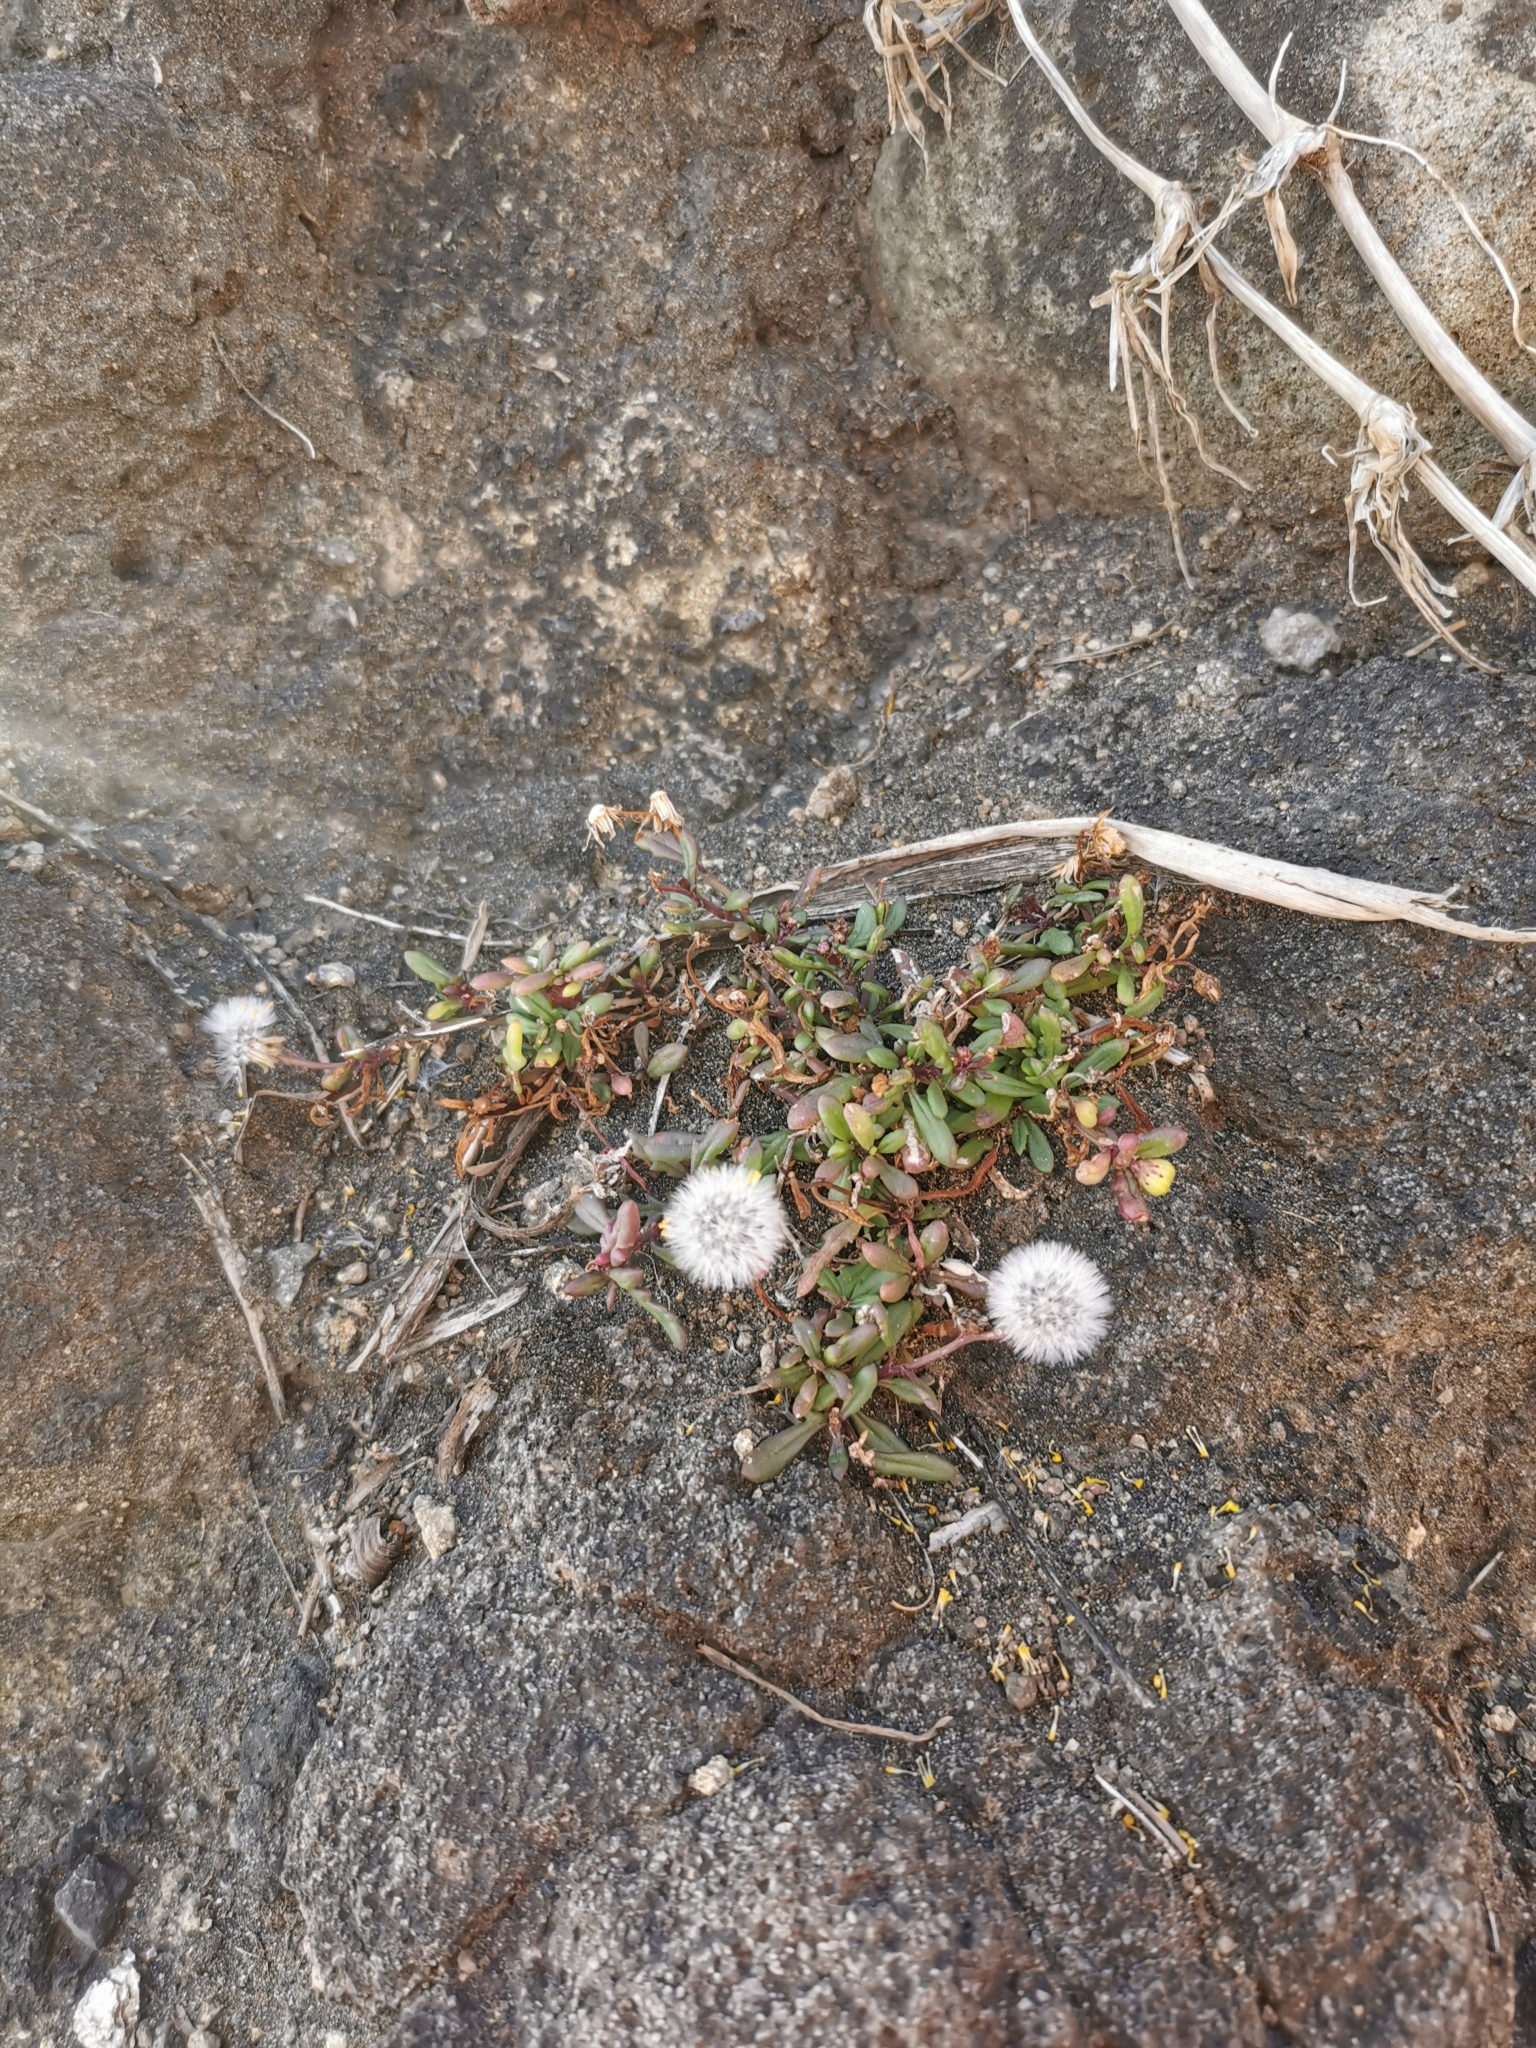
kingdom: Plantae
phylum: Tracheophyta
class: Magnoliopsida
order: Asterales
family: Asteraceae
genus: Senecio
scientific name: Senecio lautus
